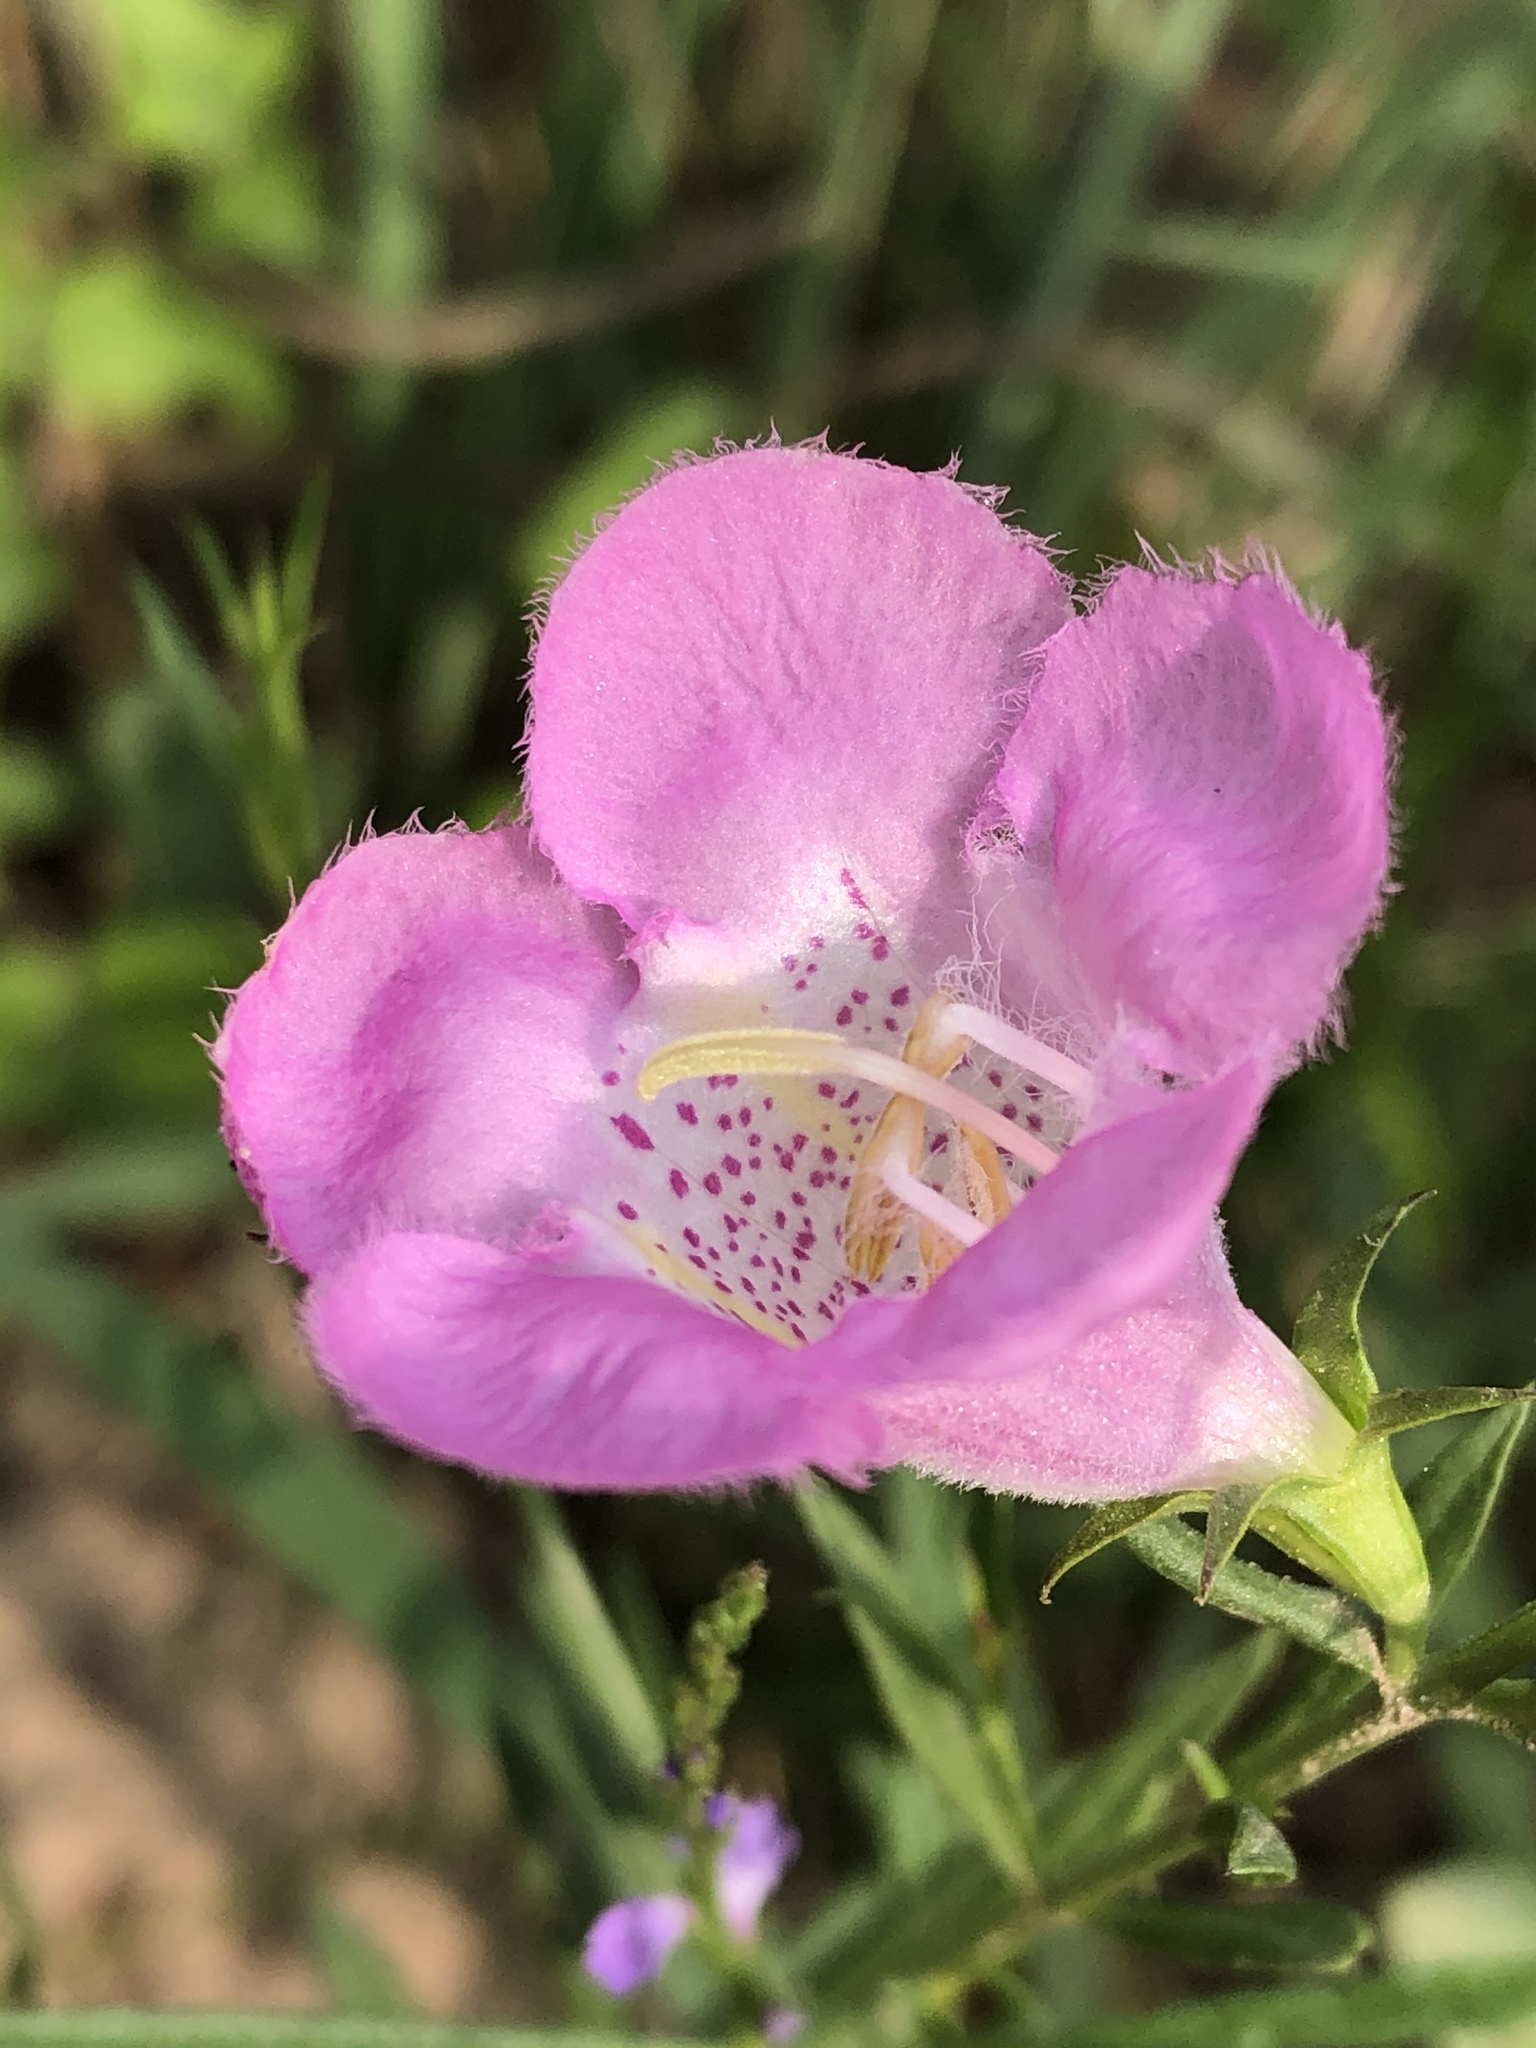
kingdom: Plantae
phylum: Tracheophyta
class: Magnoliopsida
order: Lamiales
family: Orobanchaceae
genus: Agalinis
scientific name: Agalinis heterophylla
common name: Prairie agalinis
